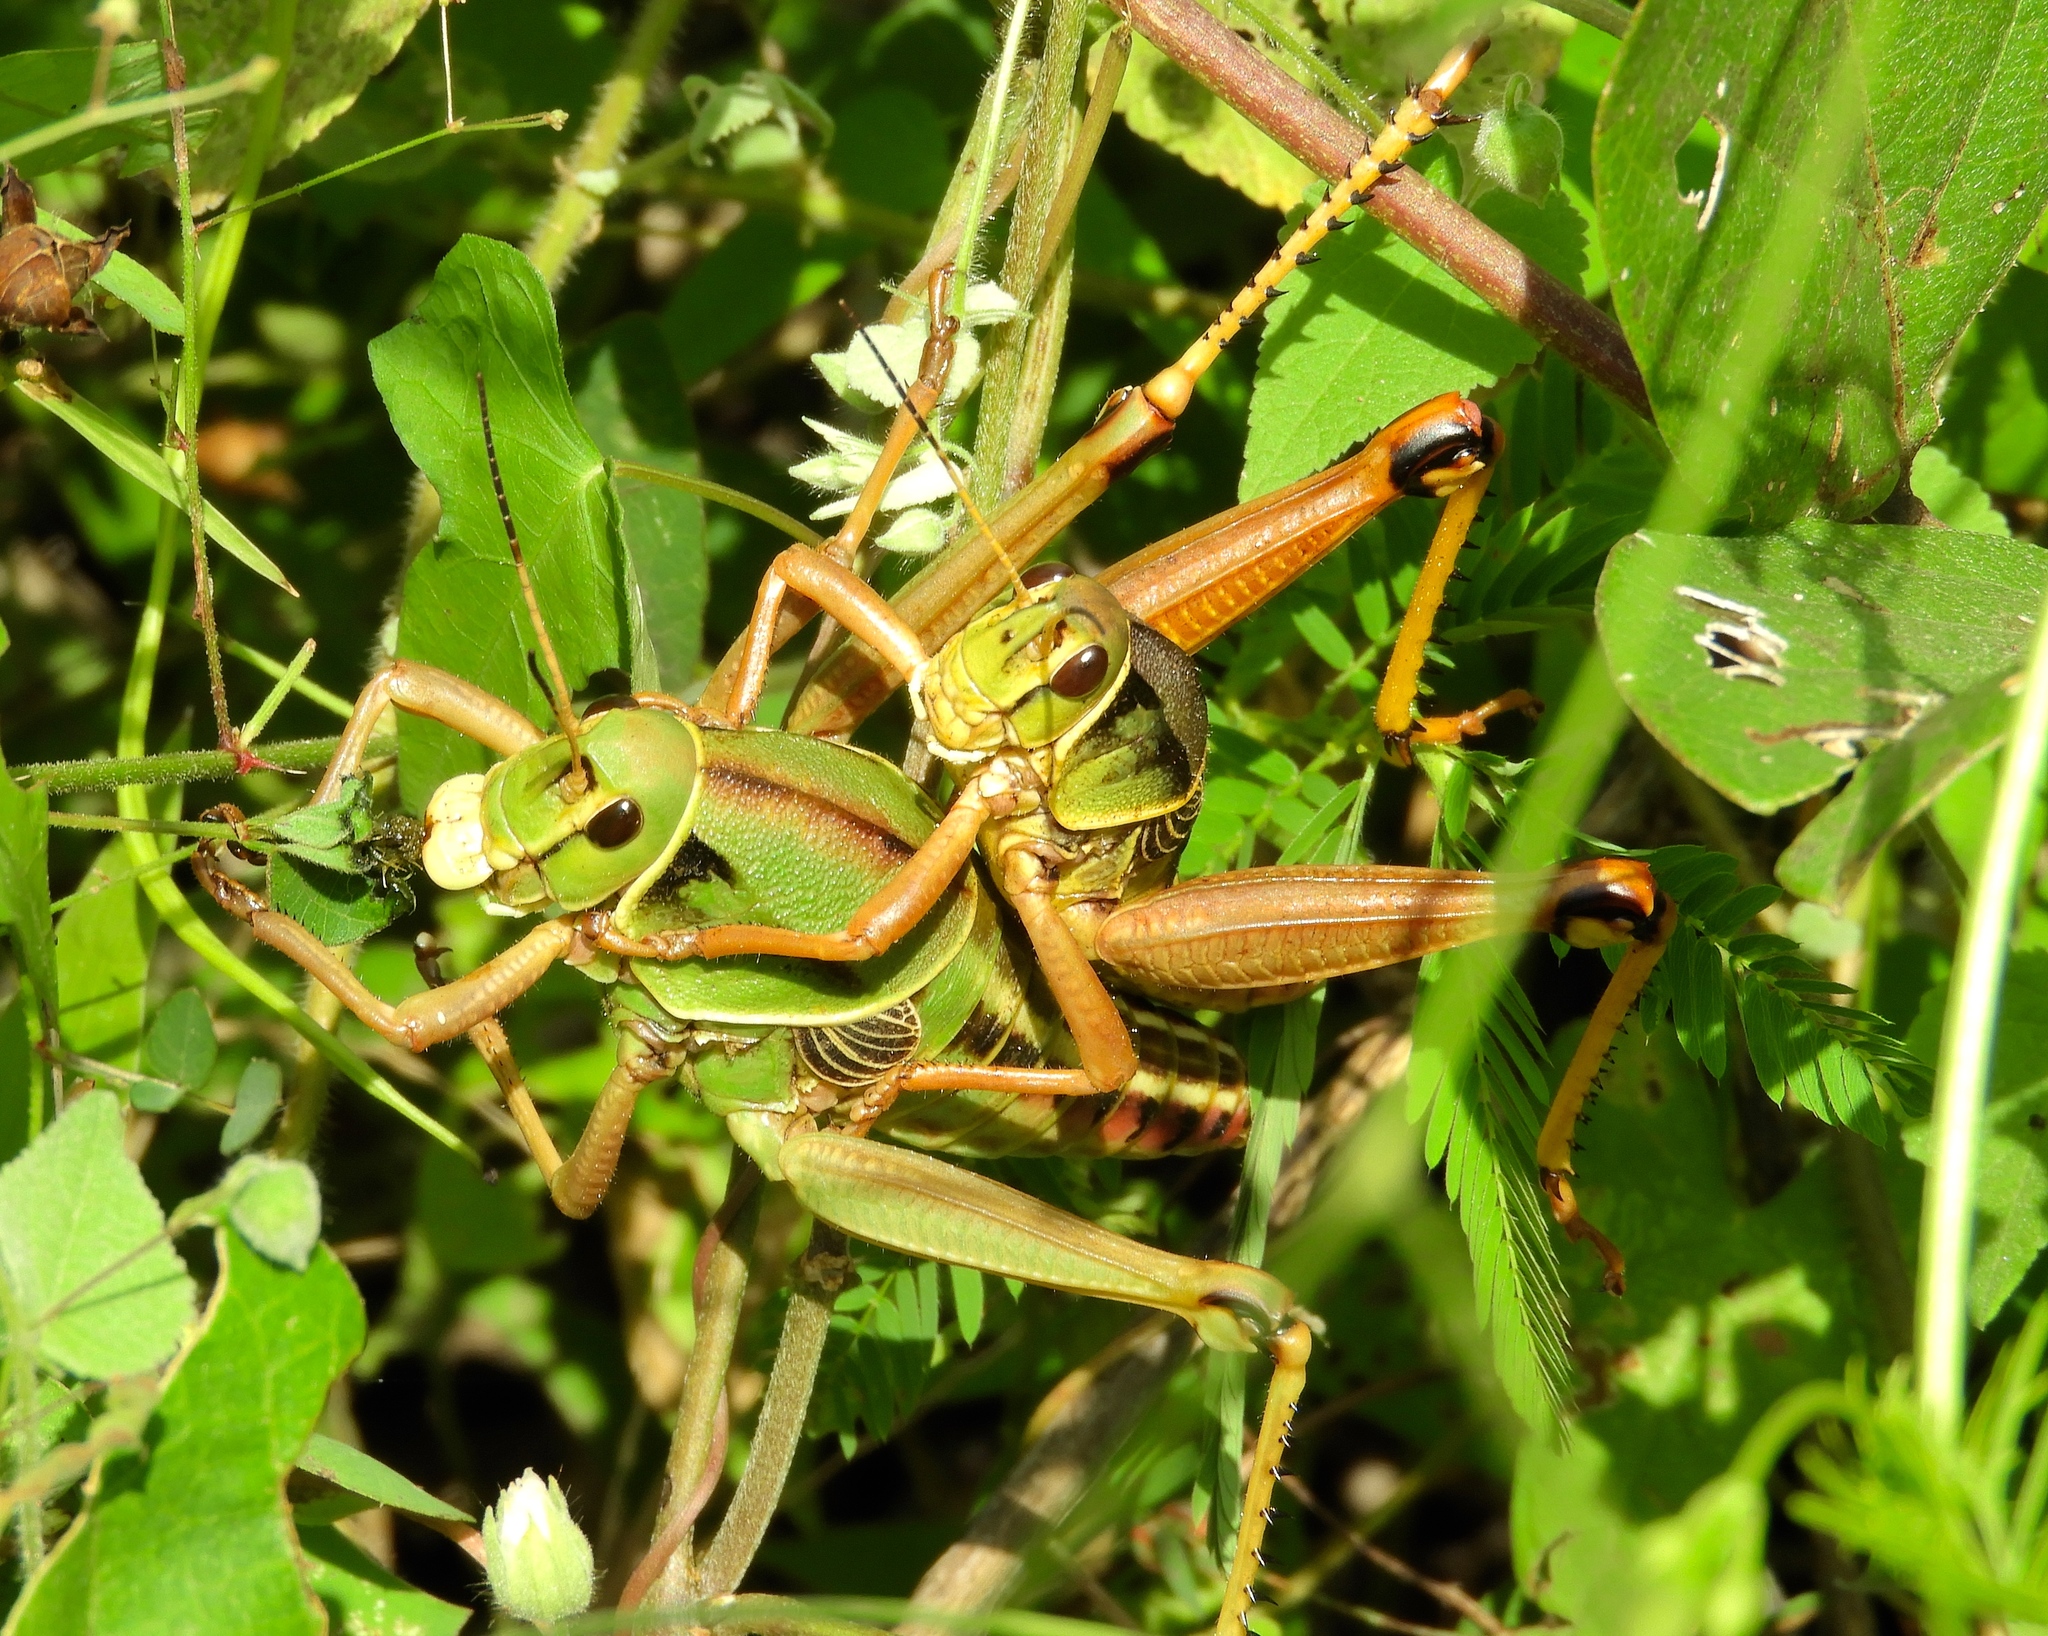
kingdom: Animalia
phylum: Arthropoda
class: Insecta
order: Orthoptera
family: Romaleidae
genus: Brachystola
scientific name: Brachystola behrensii
